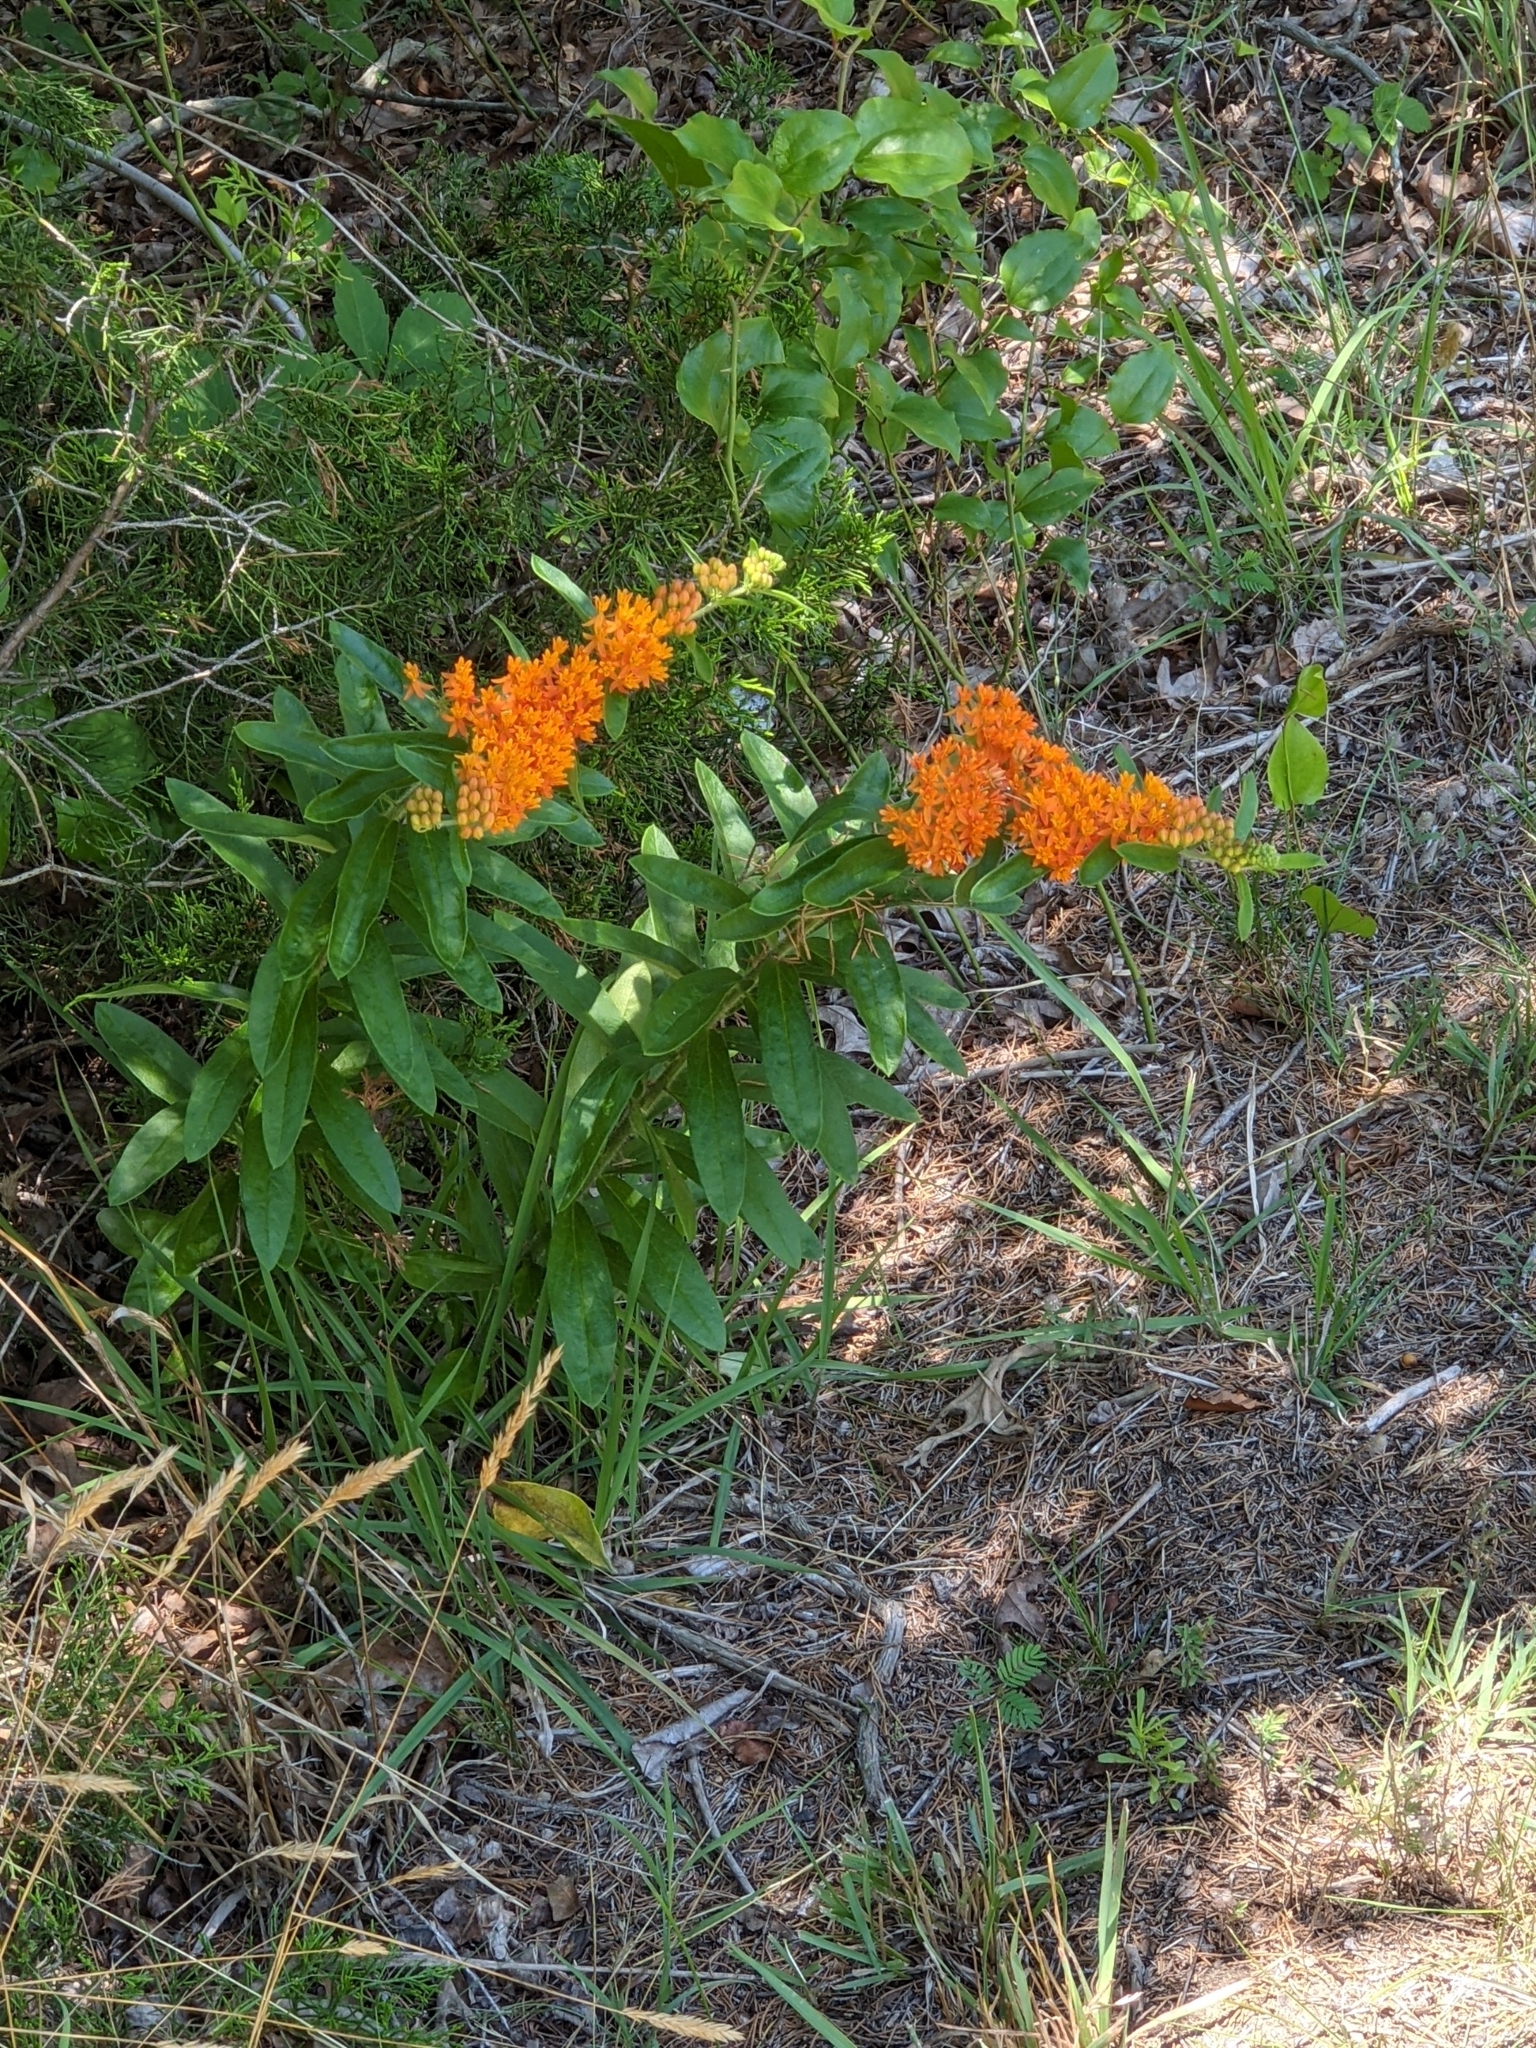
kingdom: Plantae
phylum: Tracheophyta
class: Magnoliopsida
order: Gentianales
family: Apocynaceae
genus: Asclepias
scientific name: Asclepias tuberosa
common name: Butterfly milkweed
